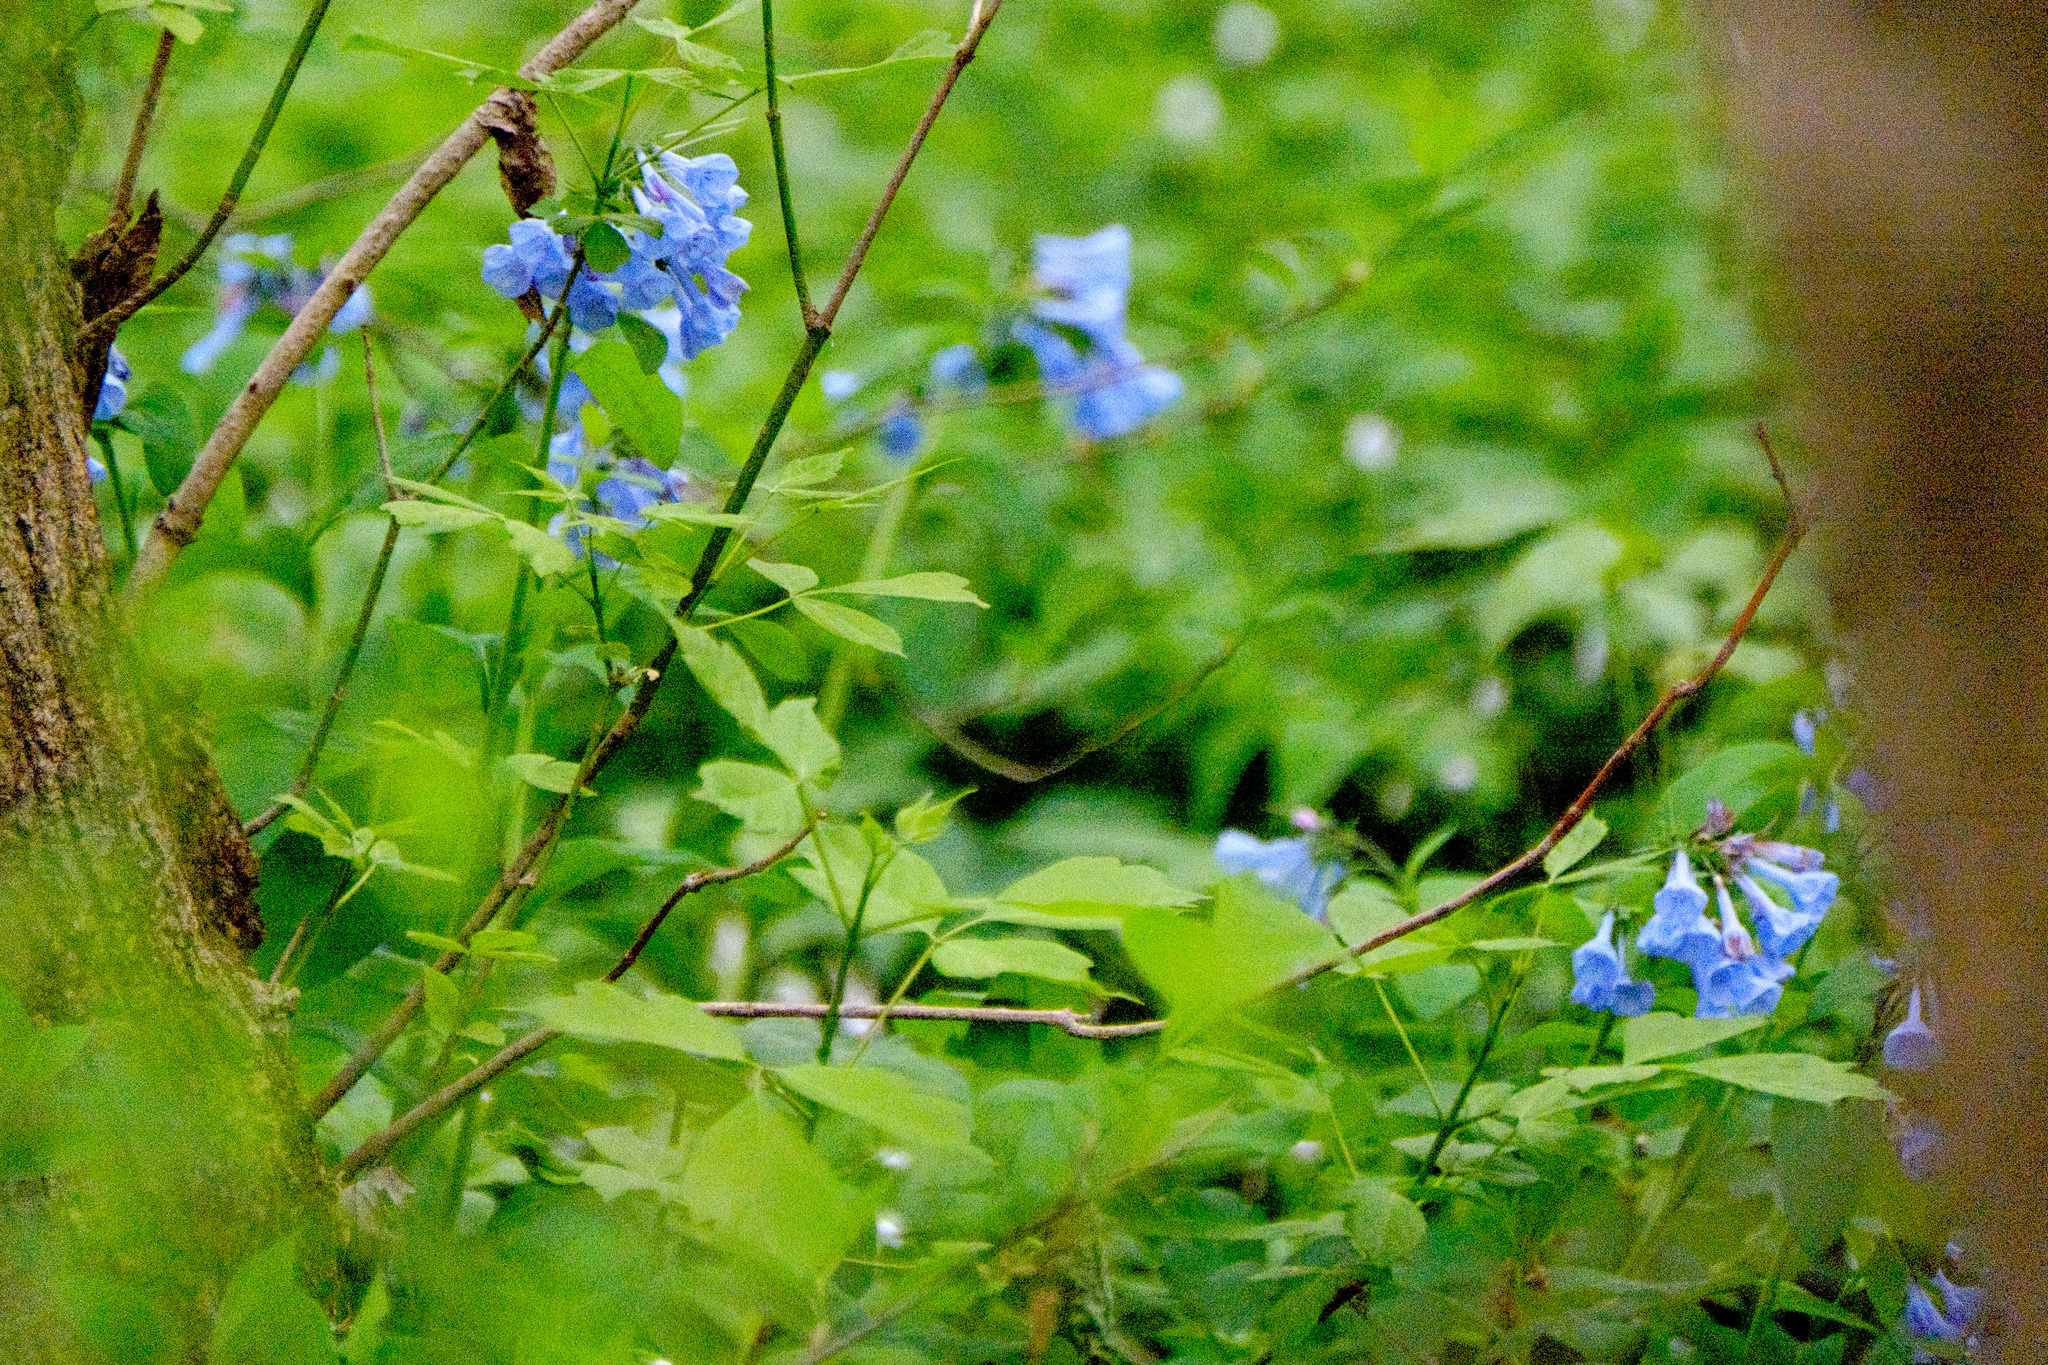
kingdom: Plantae
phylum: Tracheophyta
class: Magnoliopsida
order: Boraginales
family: Boraginaceae
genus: Mertensia
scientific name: Mertensia virginica
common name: Virginia bluebells
